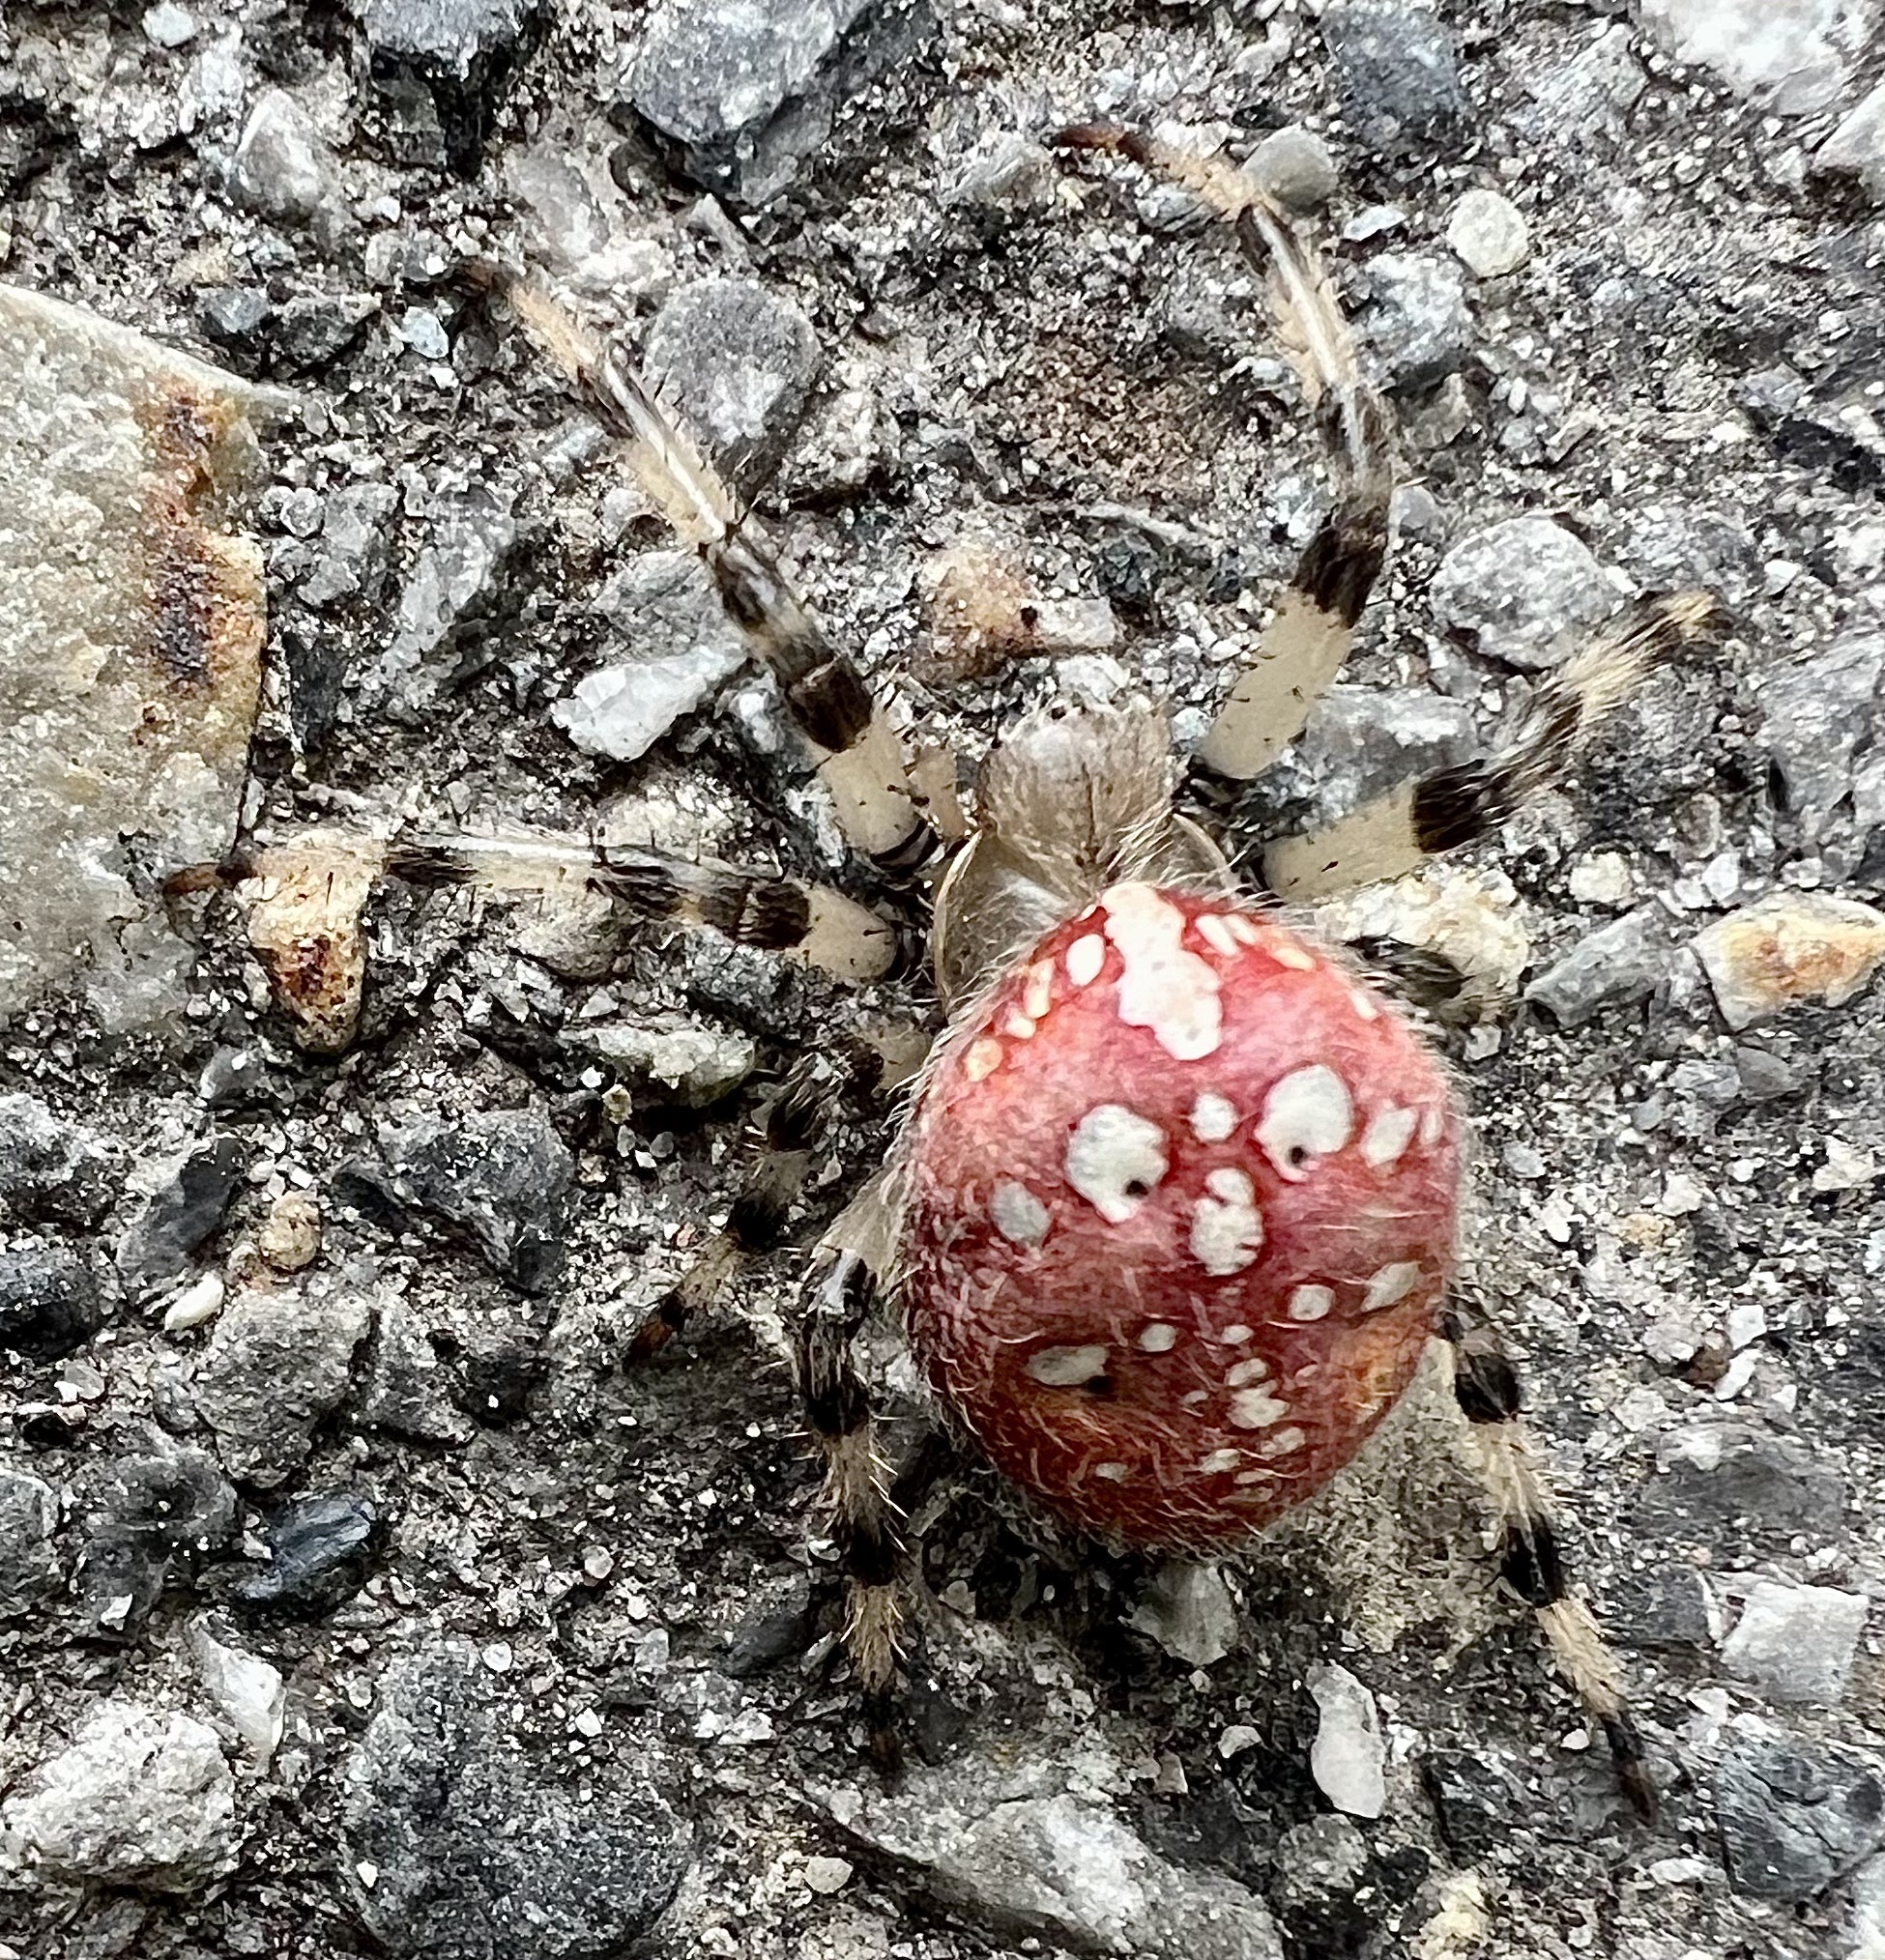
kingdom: Animalia
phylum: Arthropoda
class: Arachnida
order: Araneae
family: Araneidae
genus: Araneus
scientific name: Araneus trifolium
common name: Shamrock orbweaver
